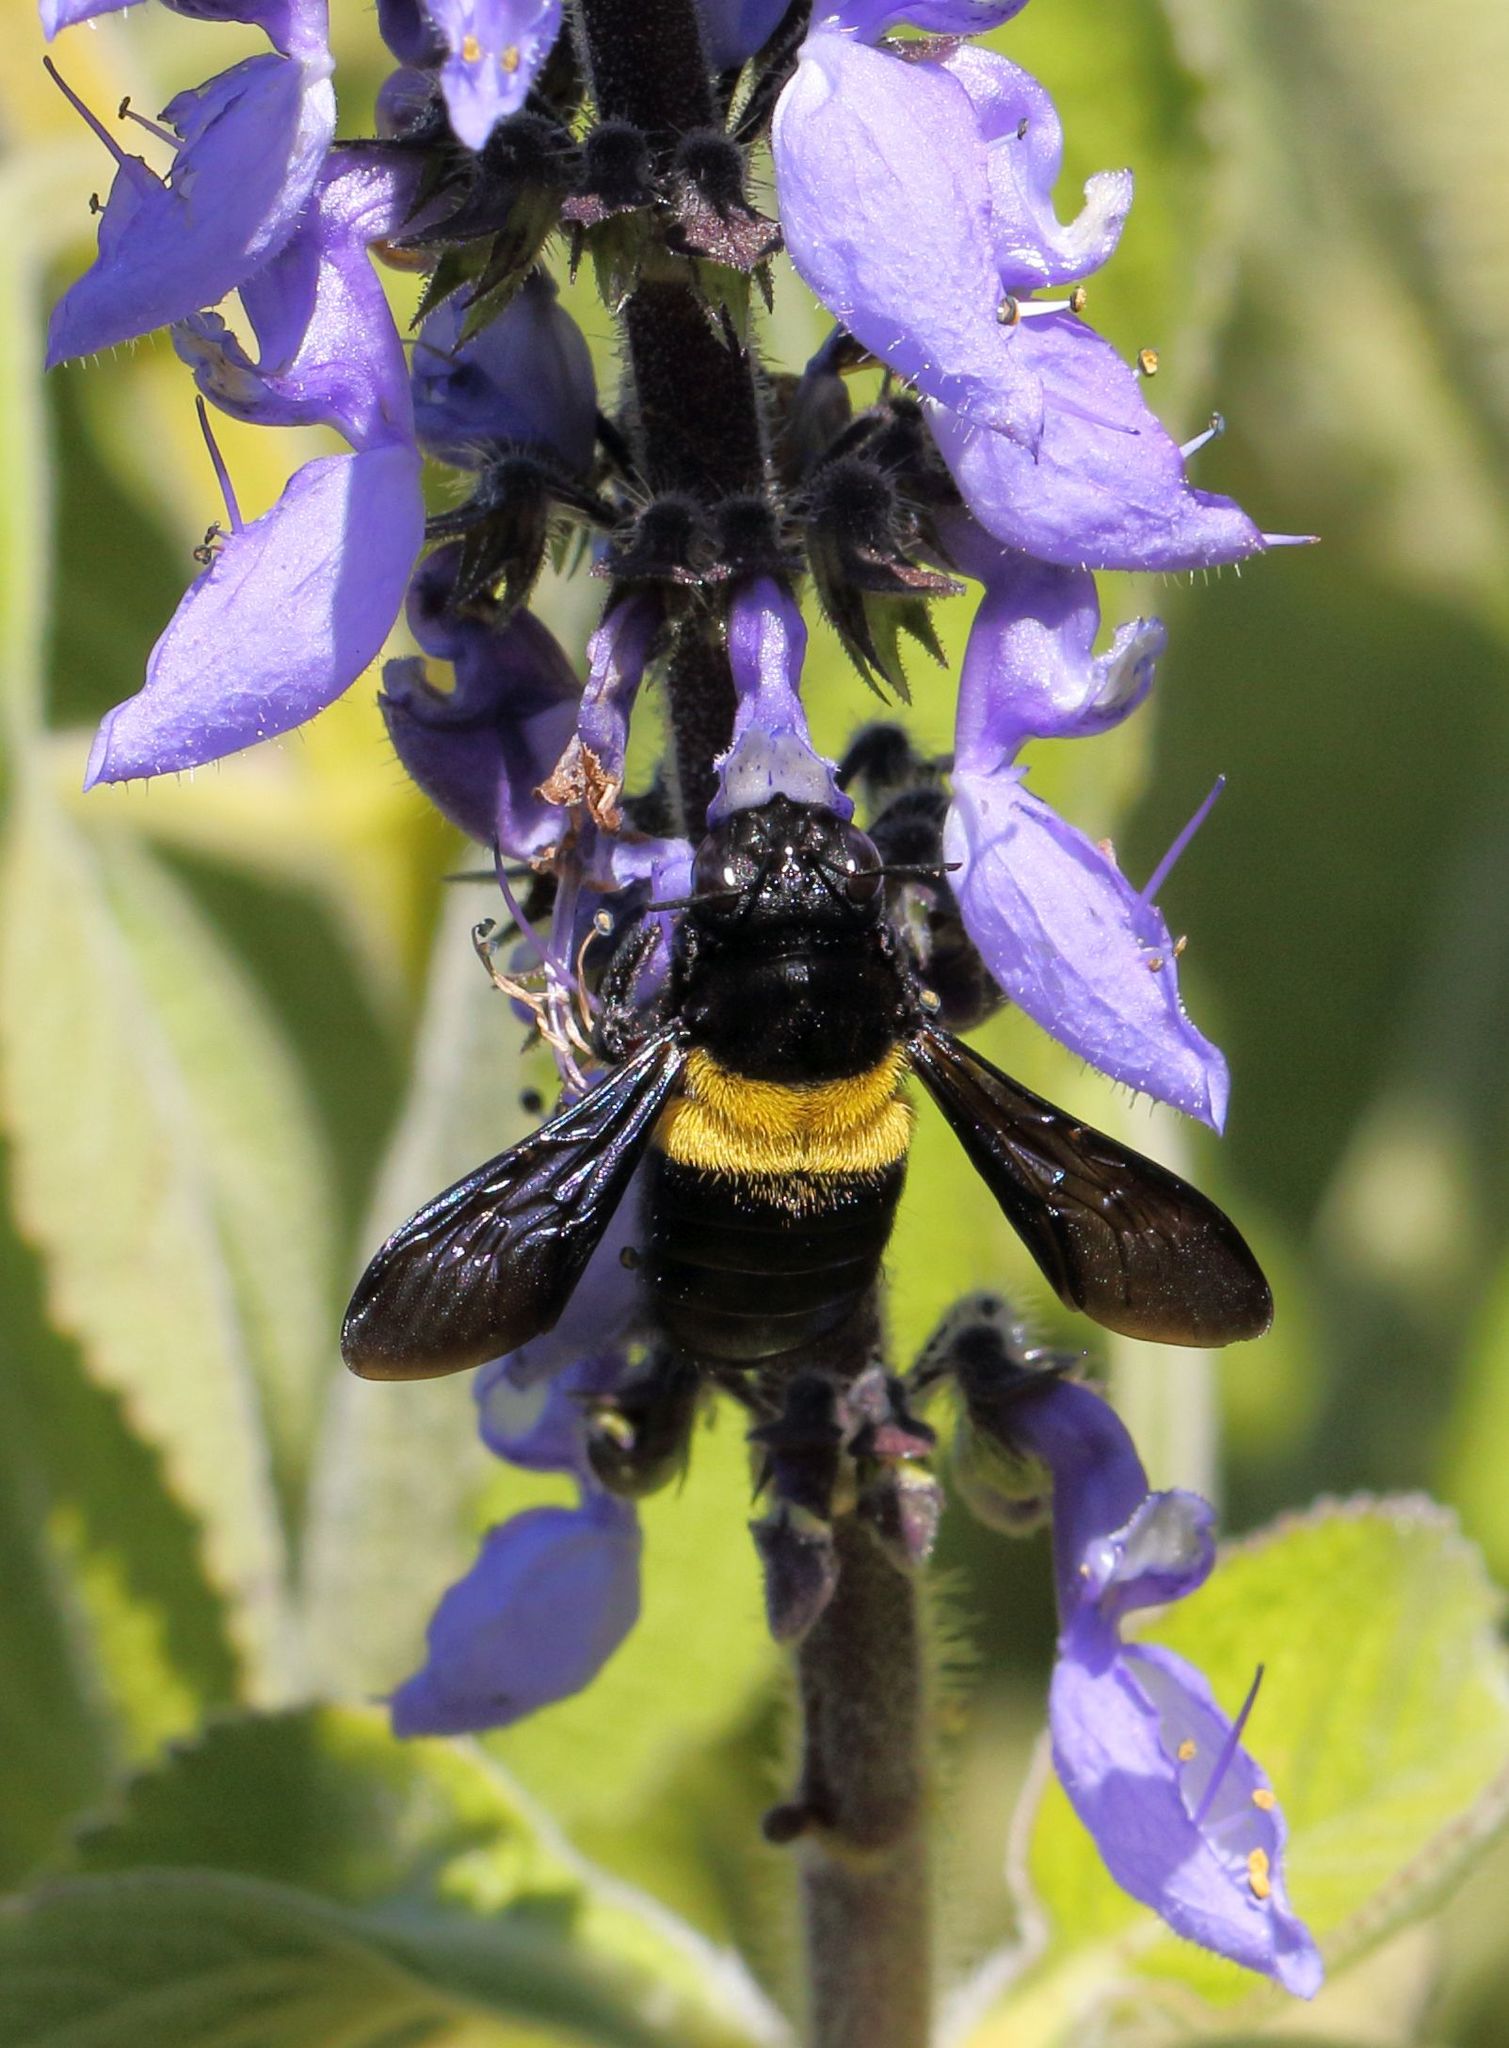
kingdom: Plantae
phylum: Tracheophyta
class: Magnoliopsida
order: Lamiales
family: Lamiaceae
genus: Coleus
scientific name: Coleus barbatus
